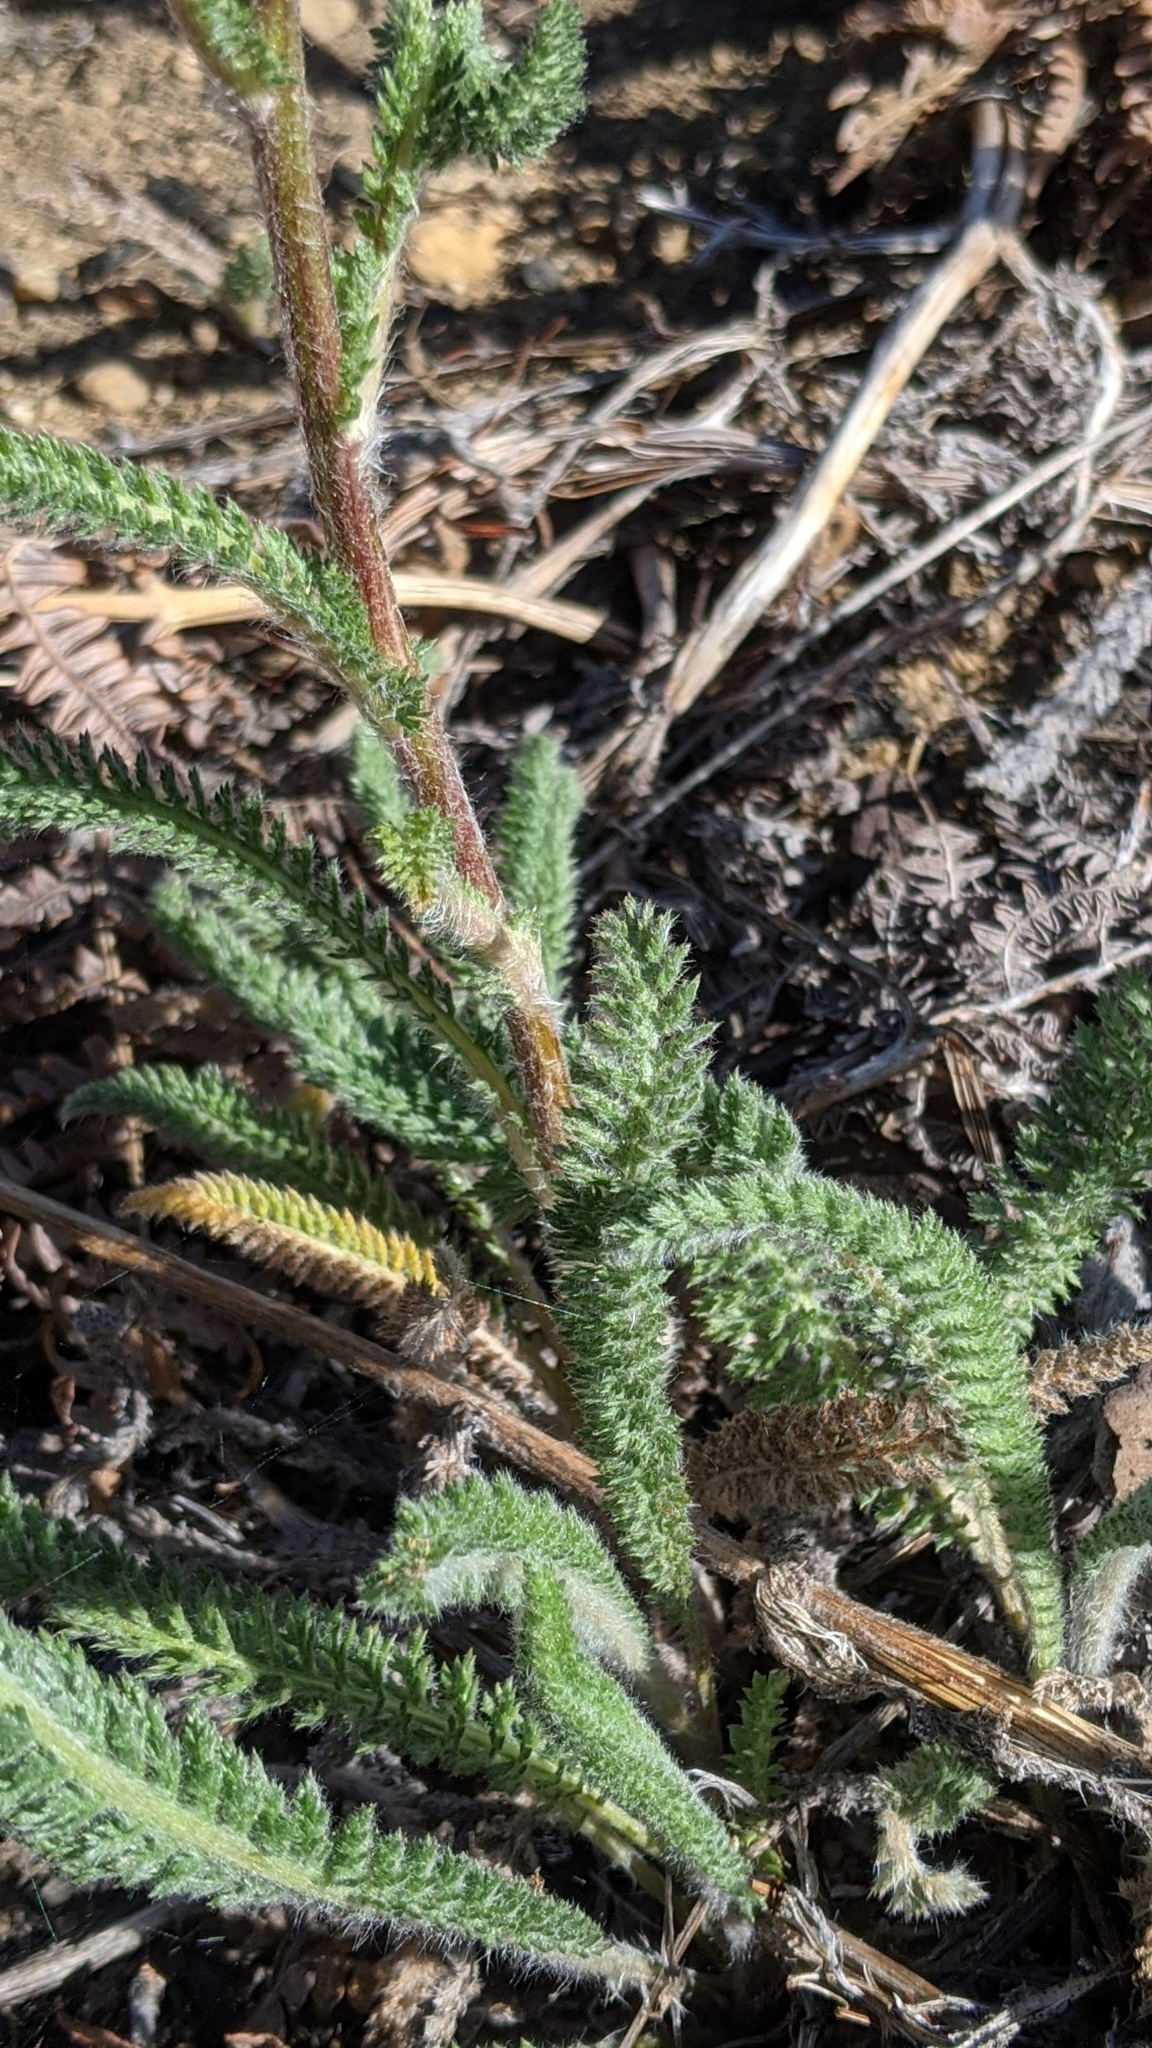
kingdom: Plantae
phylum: Tracheophyta
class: Magnoliopsida
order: Asterales
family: Asteraceae
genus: Achillea
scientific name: Achillea millefolium
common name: Yarrow
